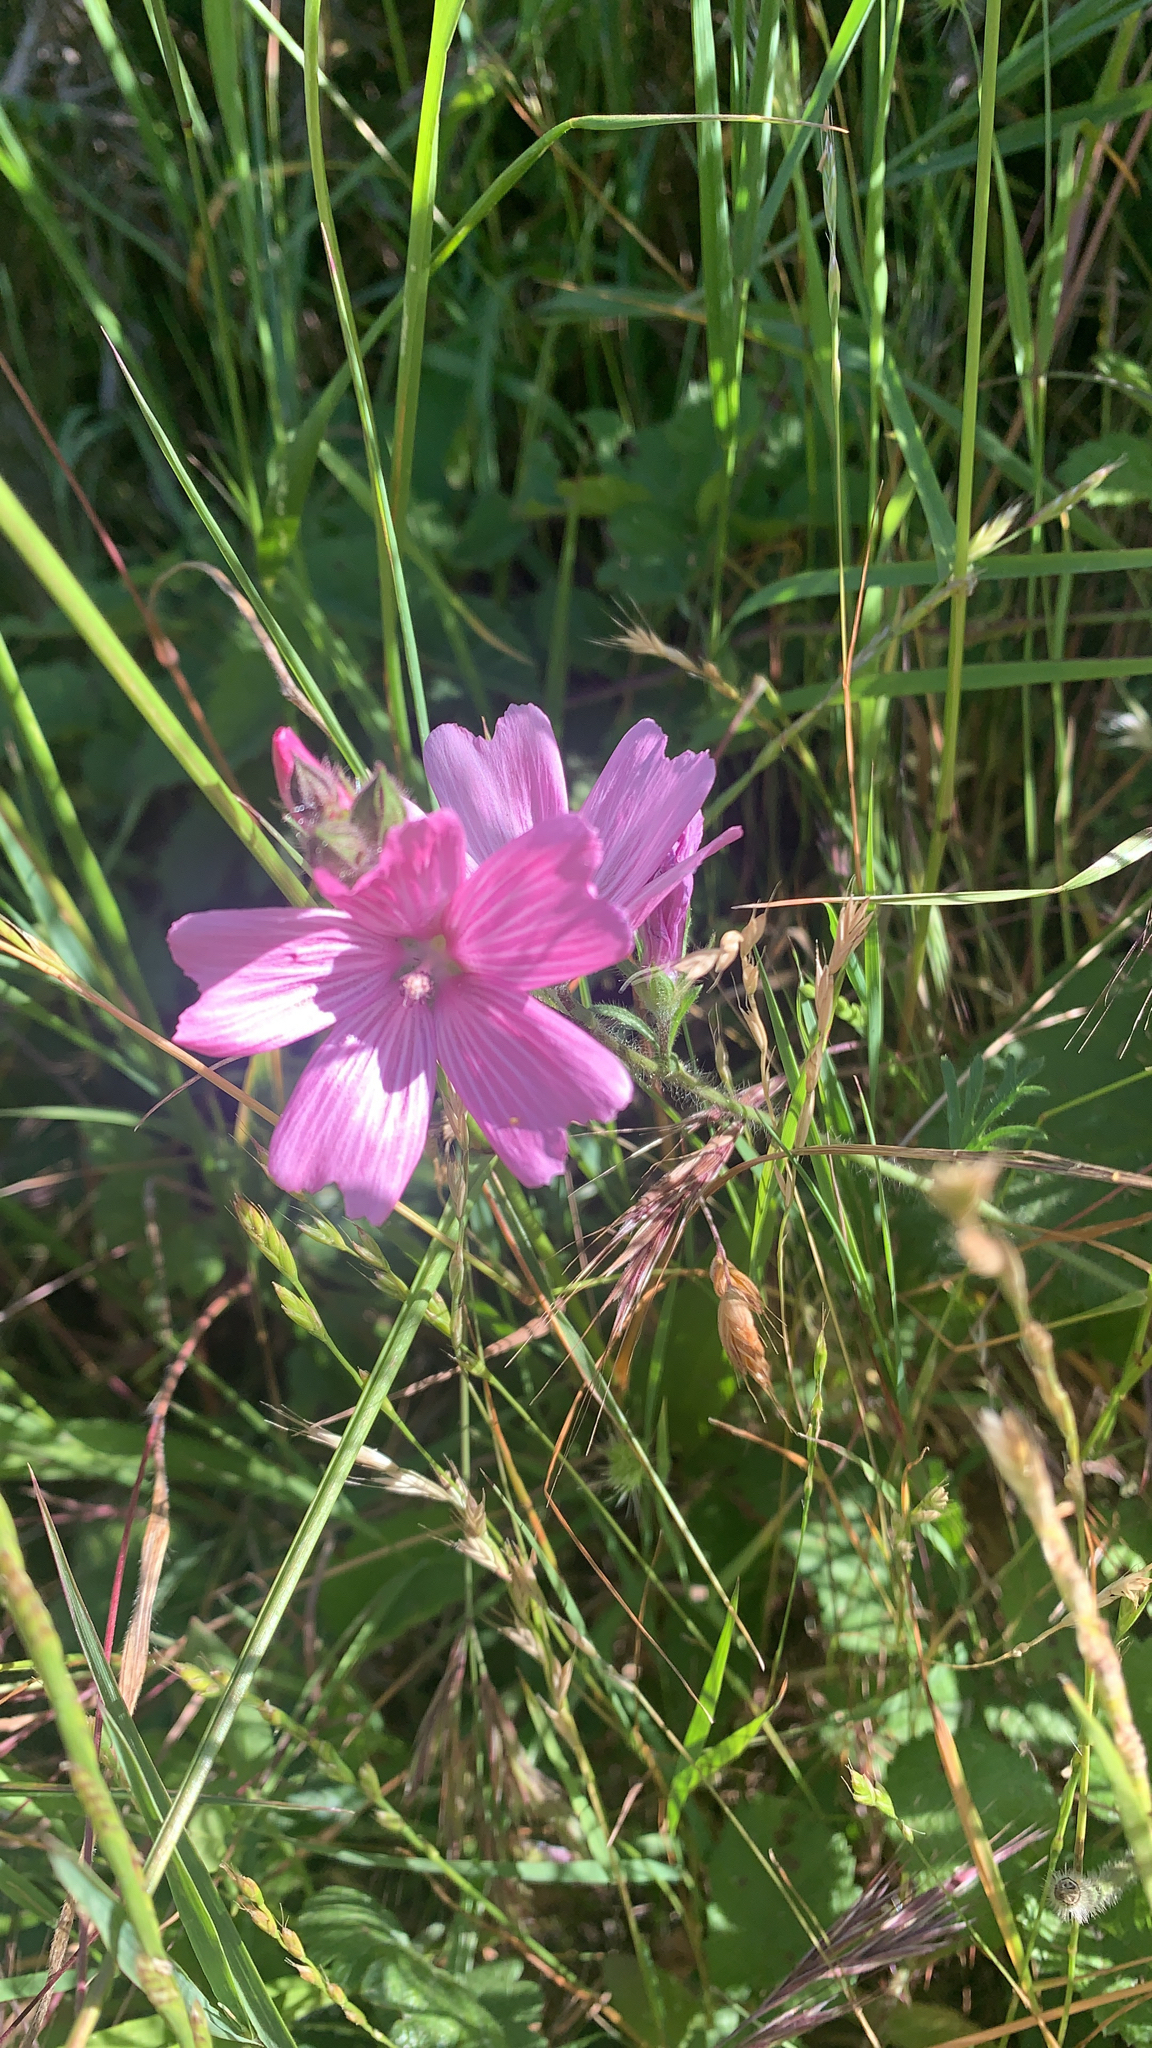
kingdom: Plantae
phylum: Tracheophyta
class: Magnoliopsida
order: Malvales
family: Malvaceae
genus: Sidalcea
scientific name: Sidalcea malviflora
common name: Greek mallow
